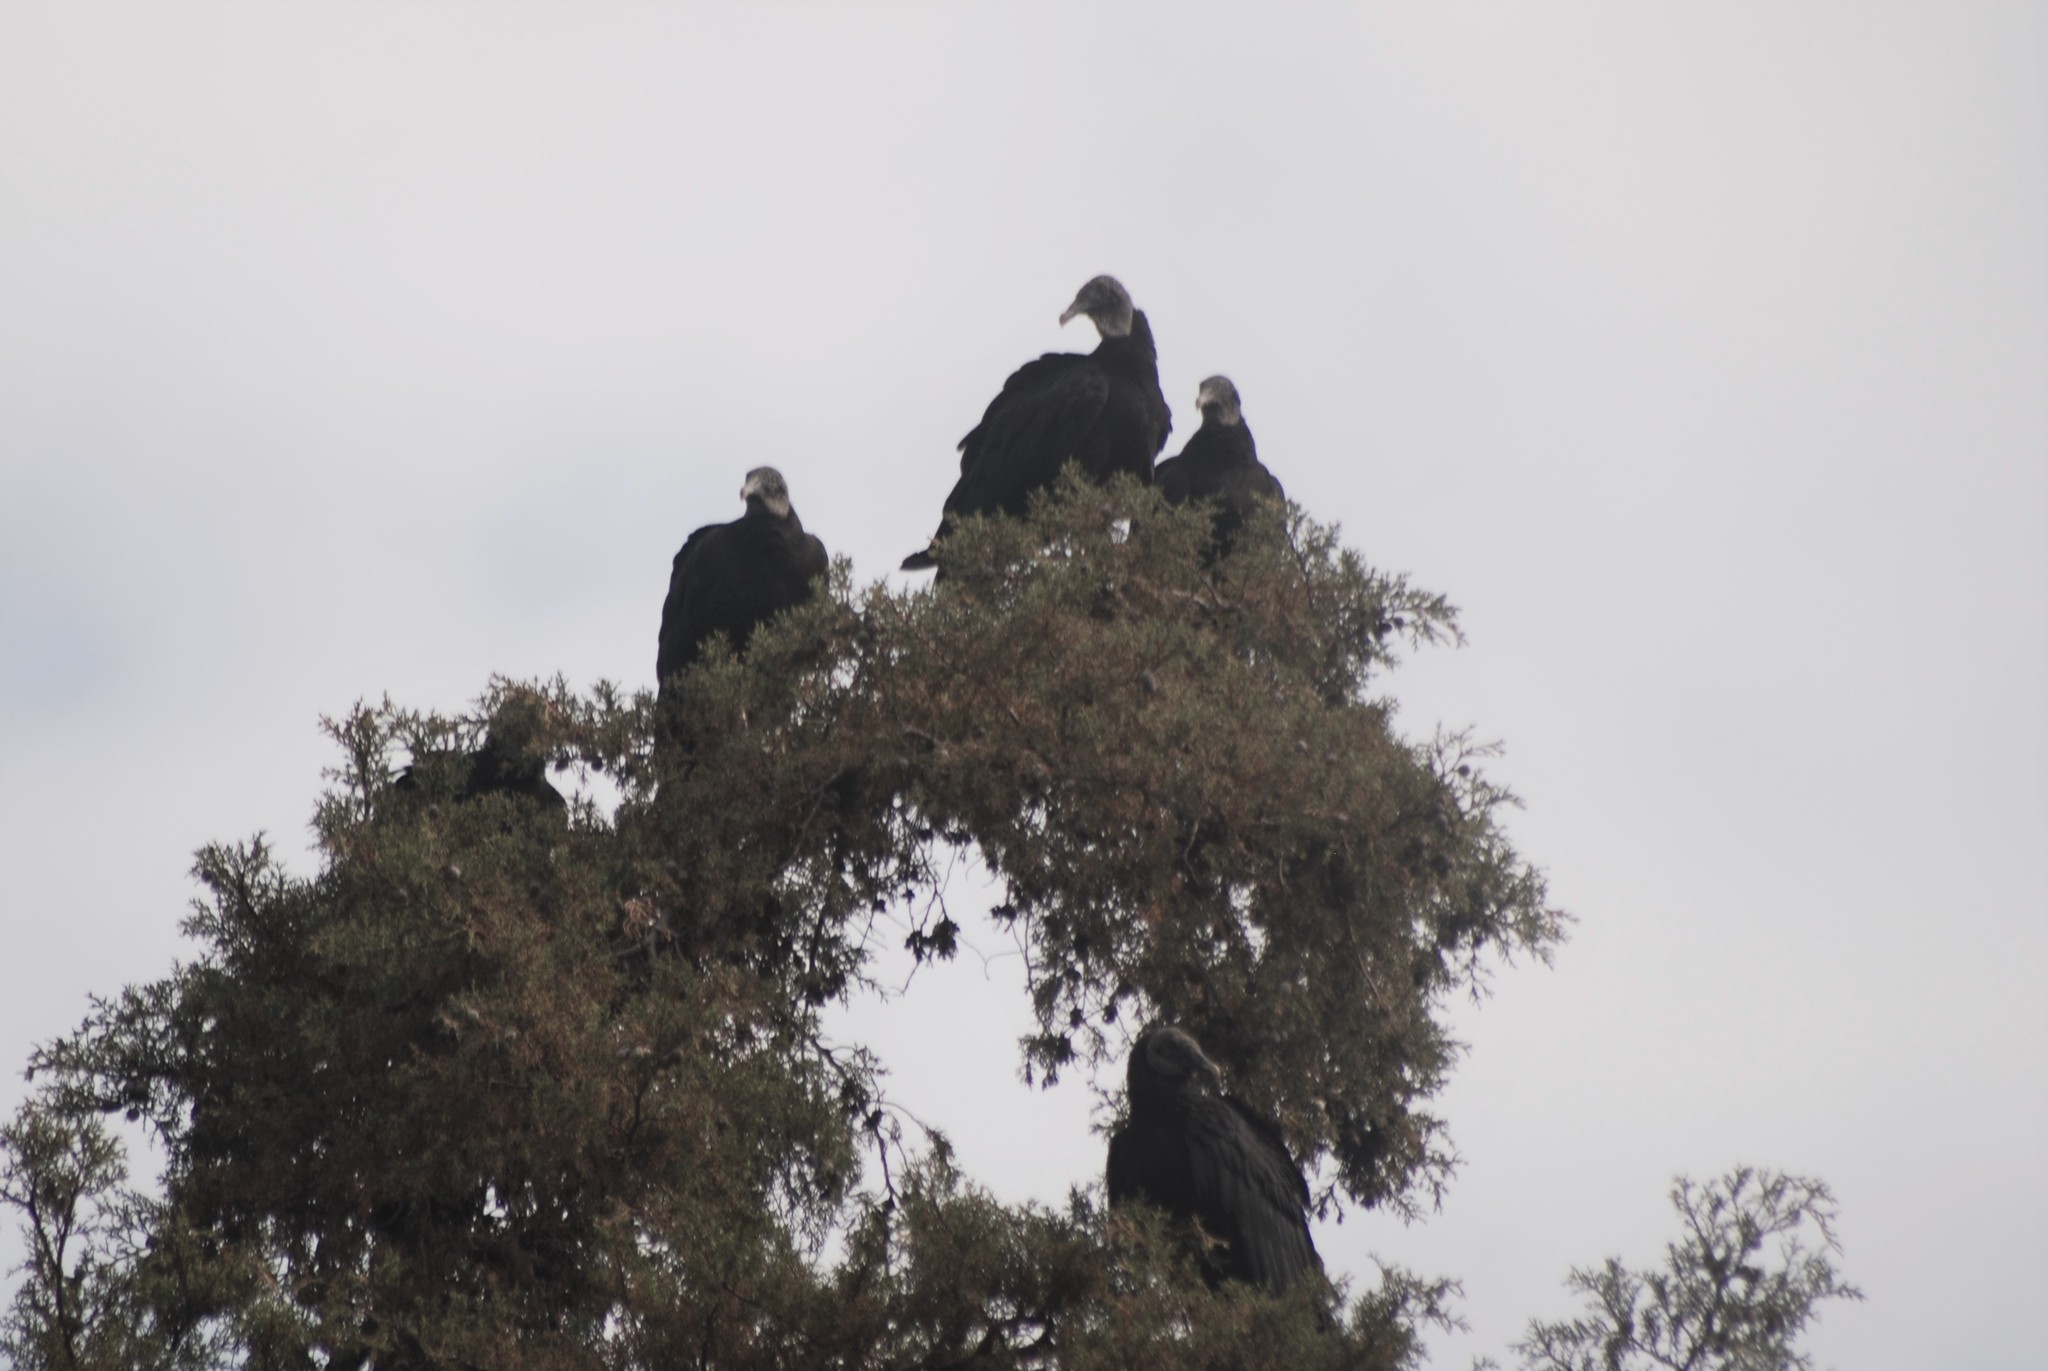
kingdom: Animalia
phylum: Chordata
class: Aves
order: Accipitriformes
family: Cathartidae
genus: Coragyps
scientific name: Coragyps atratus
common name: Black vulture
